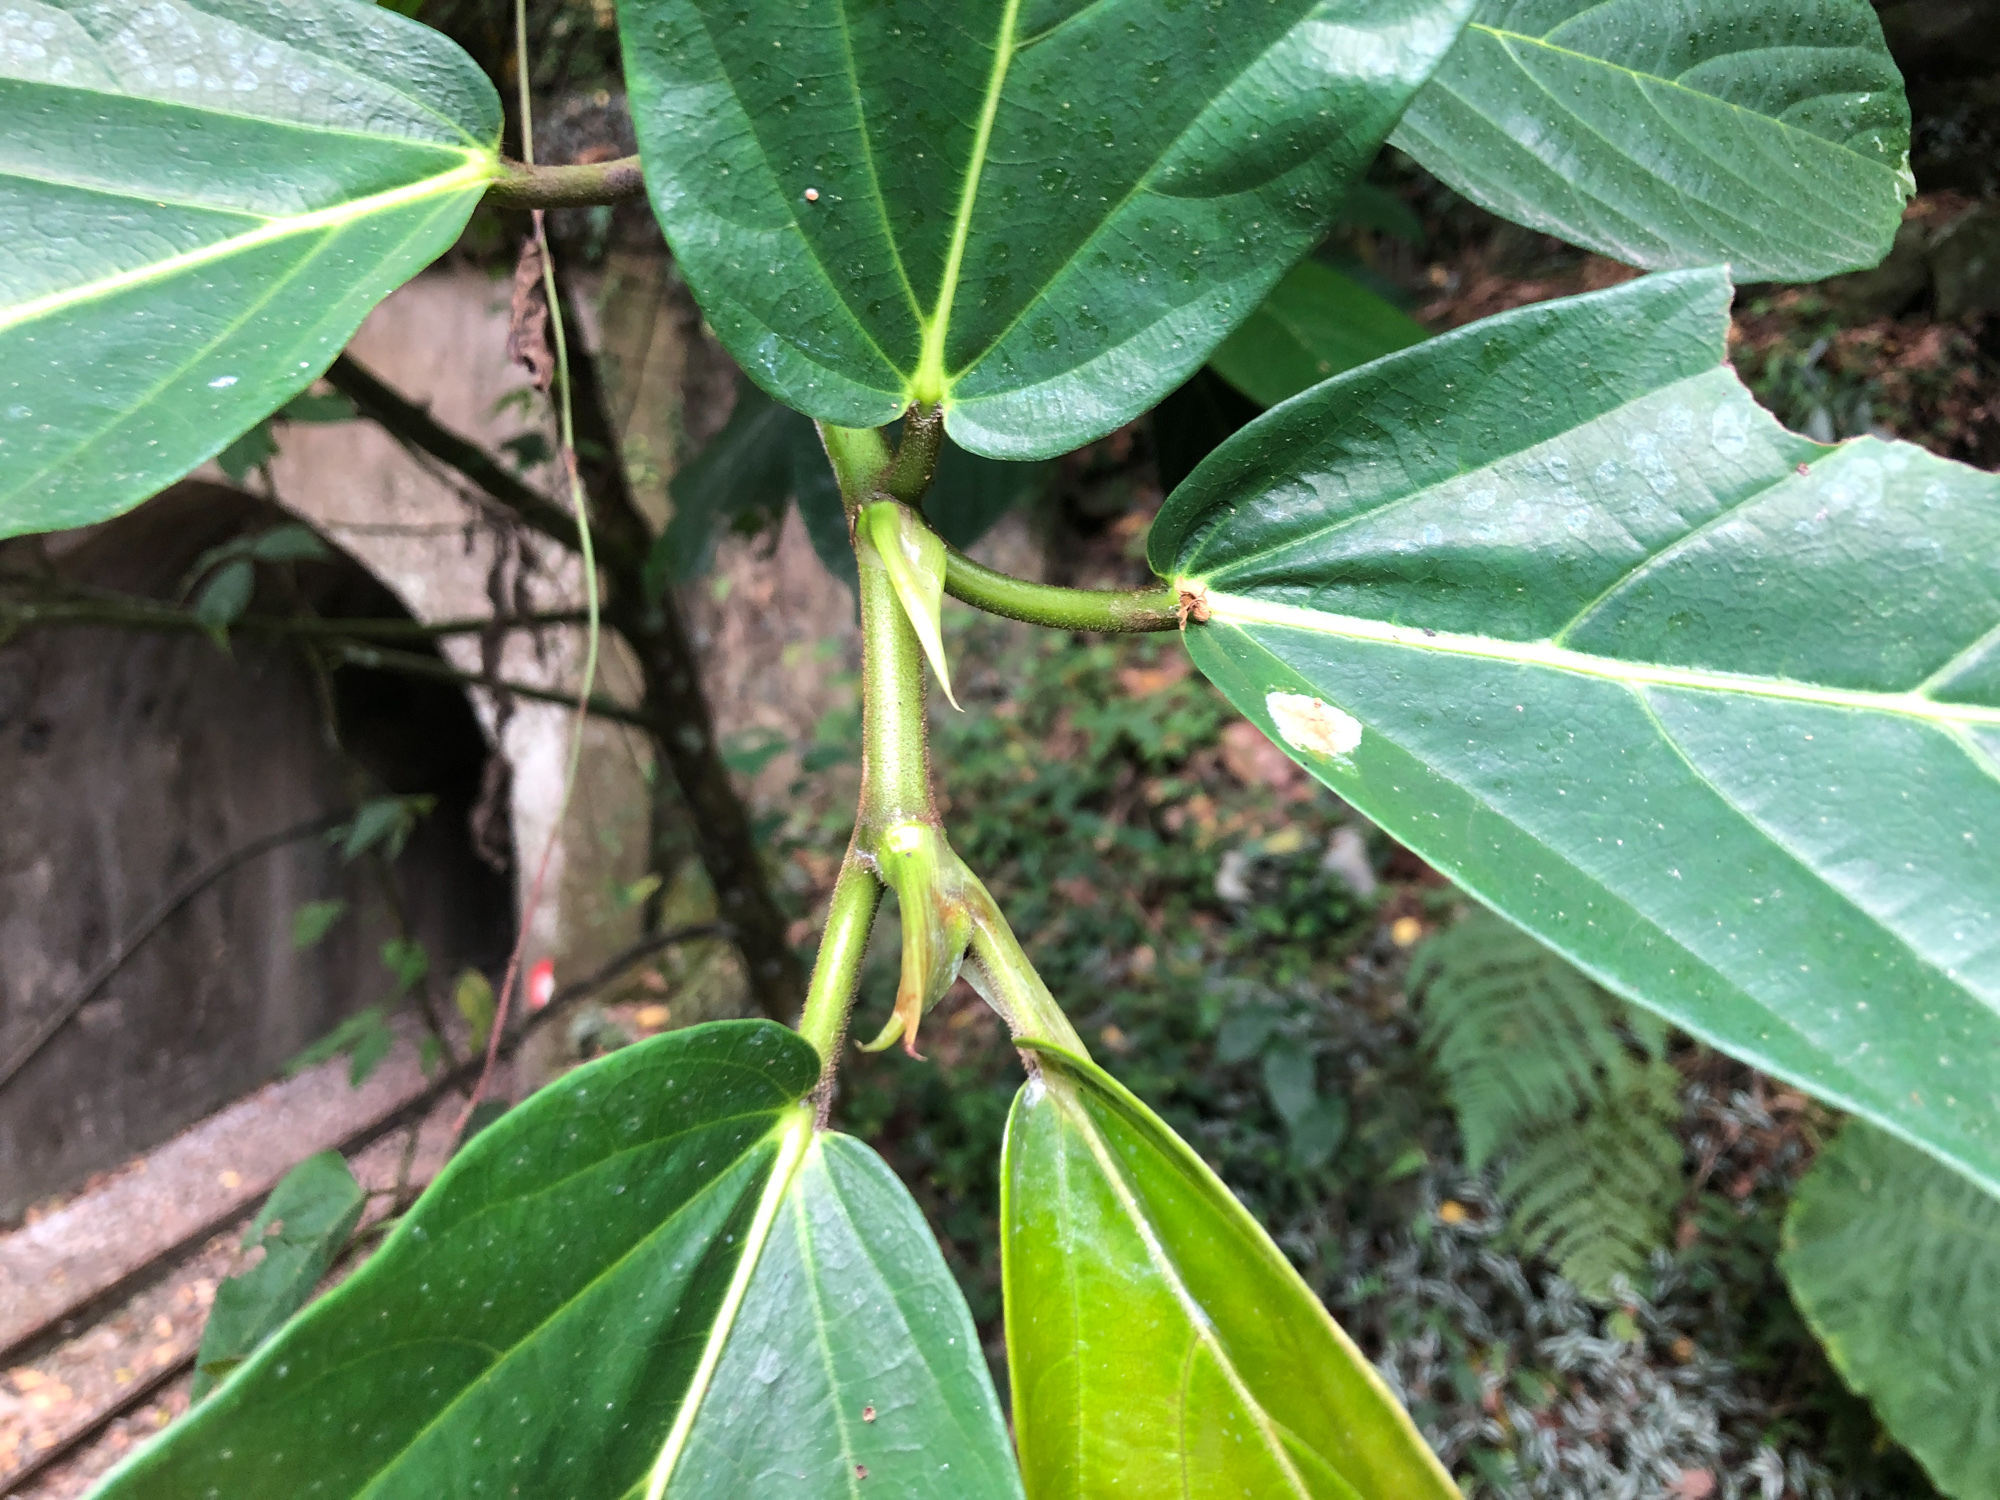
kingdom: Plantae
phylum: Tracheophyta
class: Magnoliopsida
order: Rosales
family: Moraceae
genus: Ficus
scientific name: Ficus fistulosa
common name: Figs
